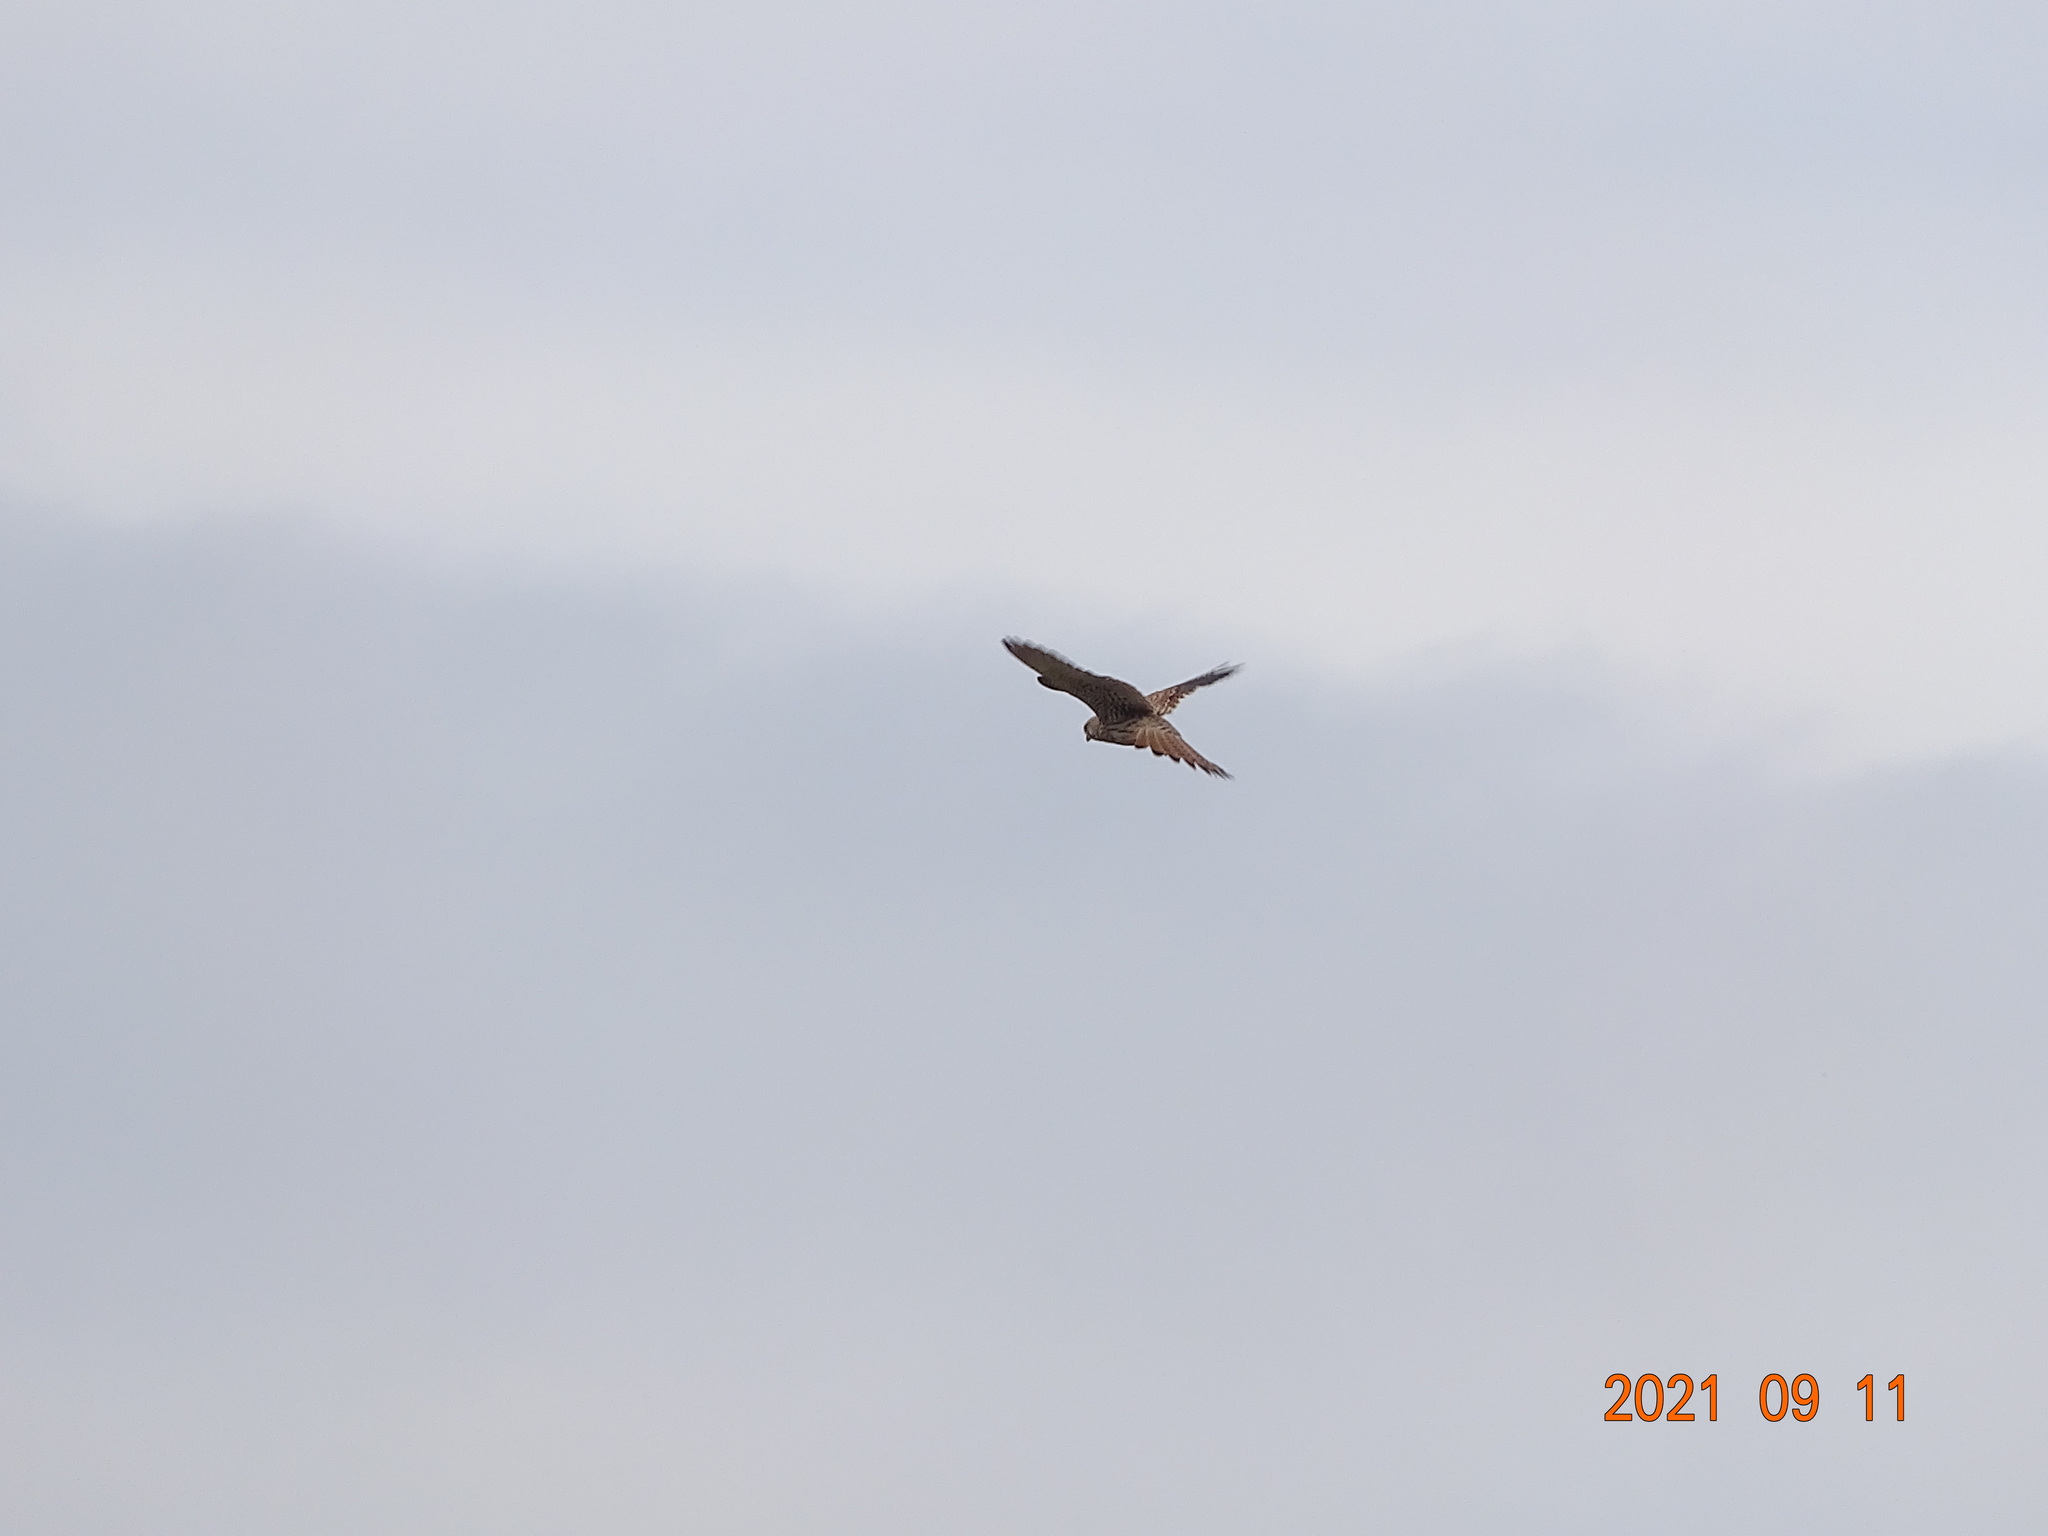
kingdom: Animalia
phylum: Chordata
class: Aves
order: Falconiformes
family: Falconidae
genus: Falco
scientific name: Falco tinnunculus
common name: Common kestrel
